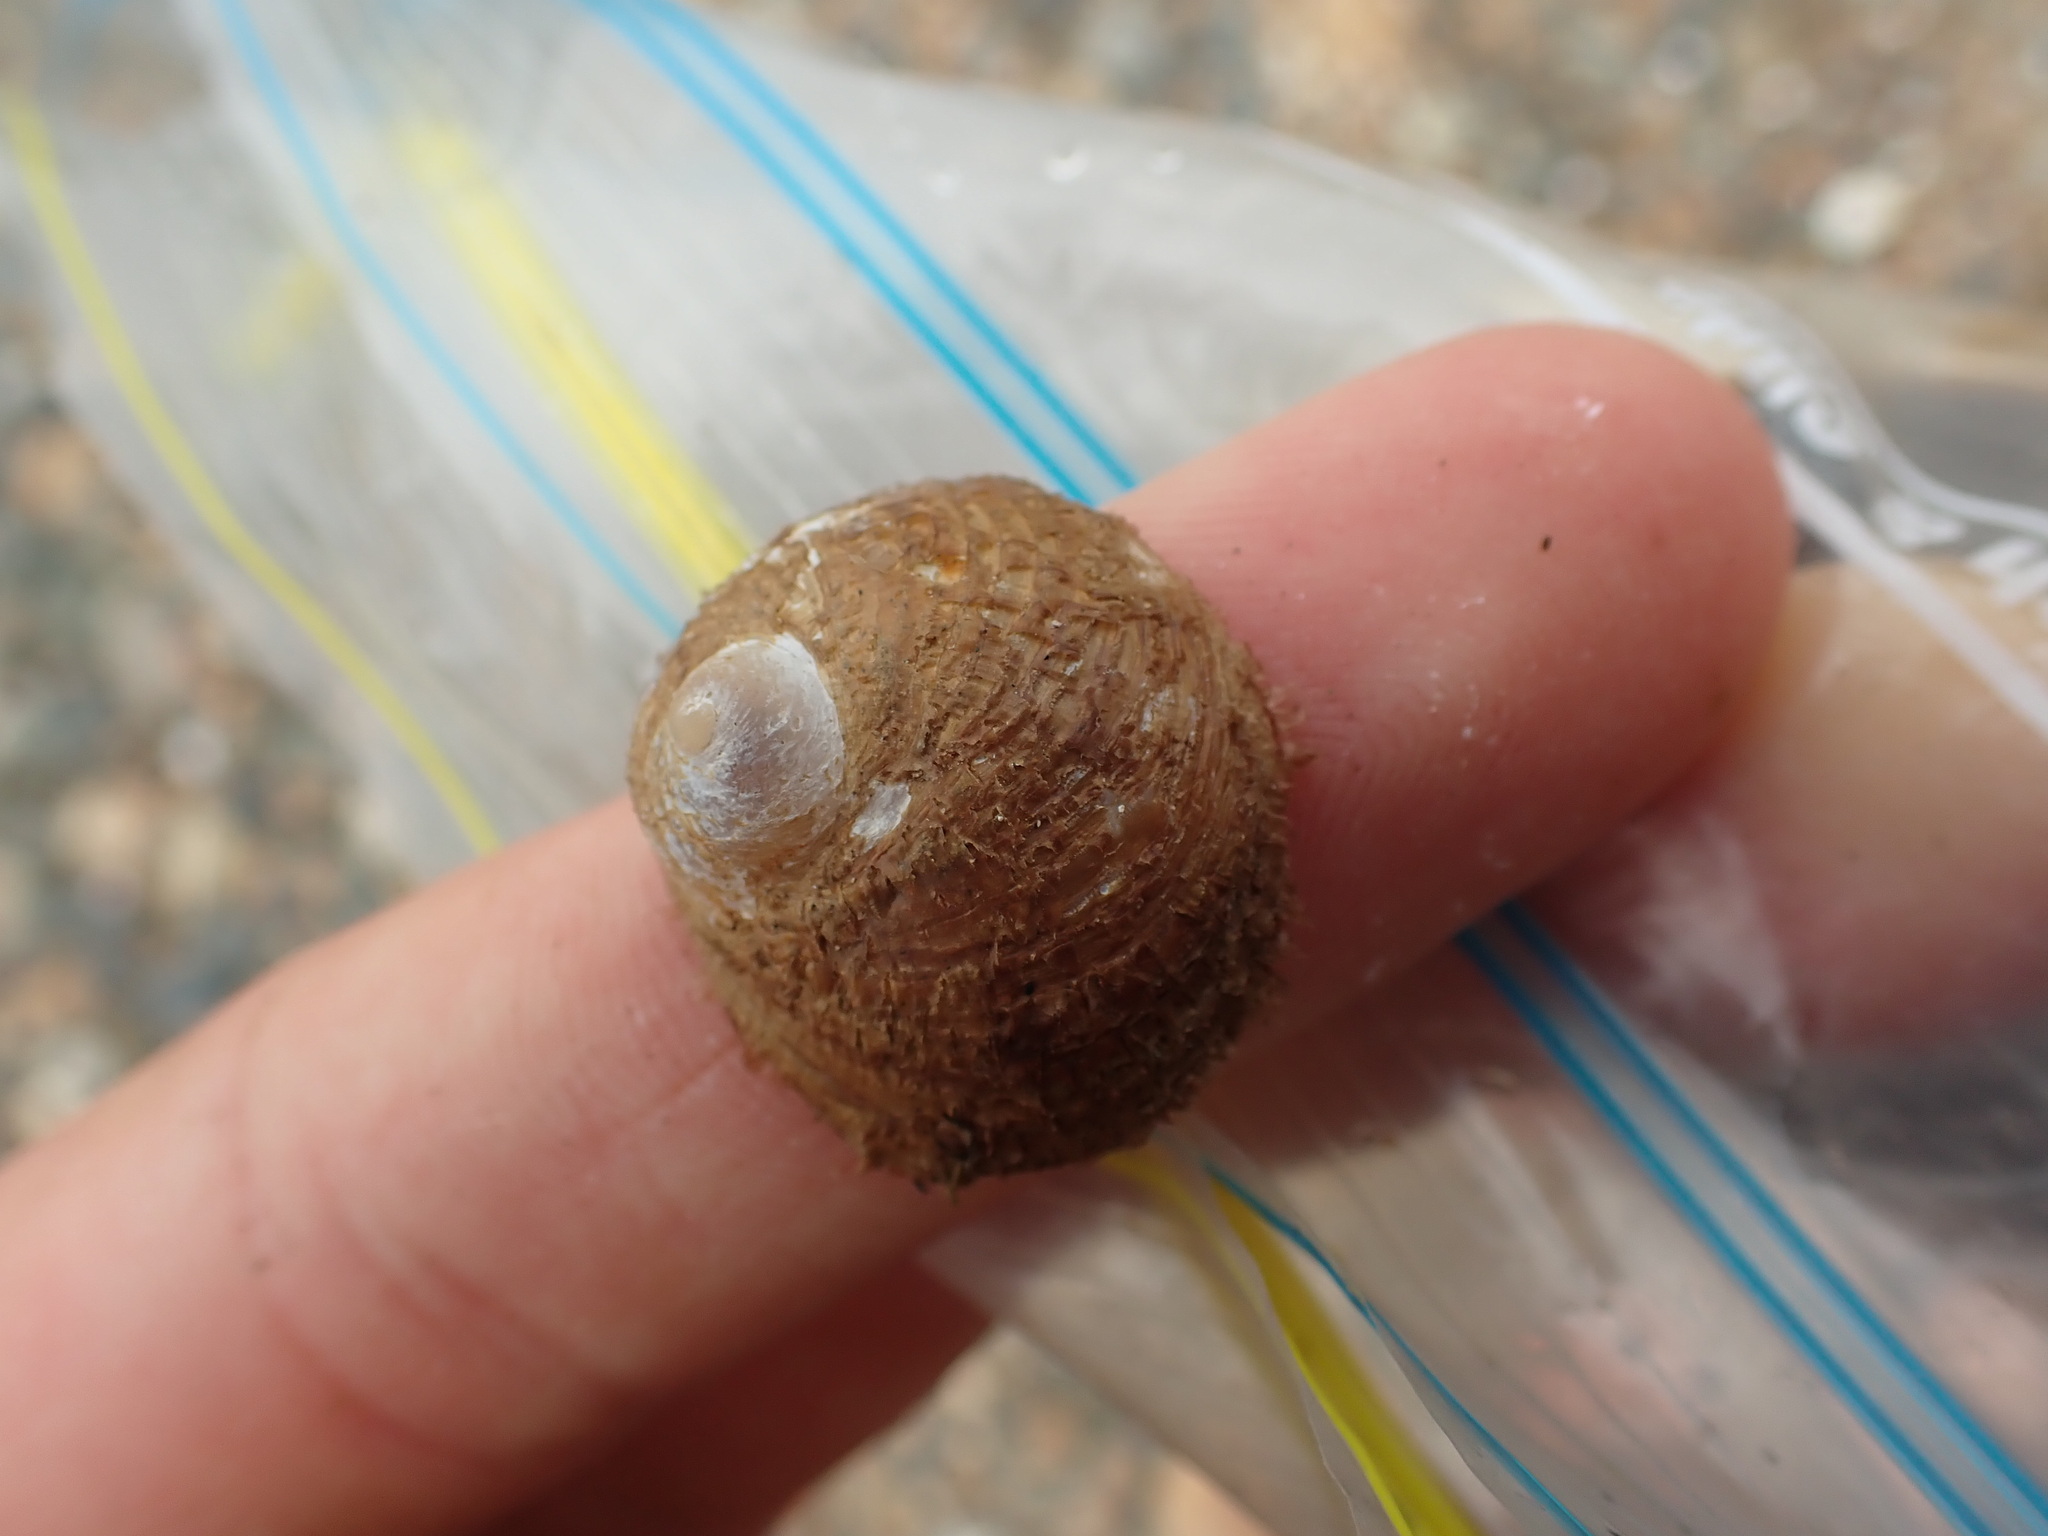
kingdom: Animalia
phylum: Mollusca
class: Gastropoda
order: Littorinimorpha
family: Calyptraeidae
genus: Sigapatella
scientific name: Sigapatella novaezelandiae
